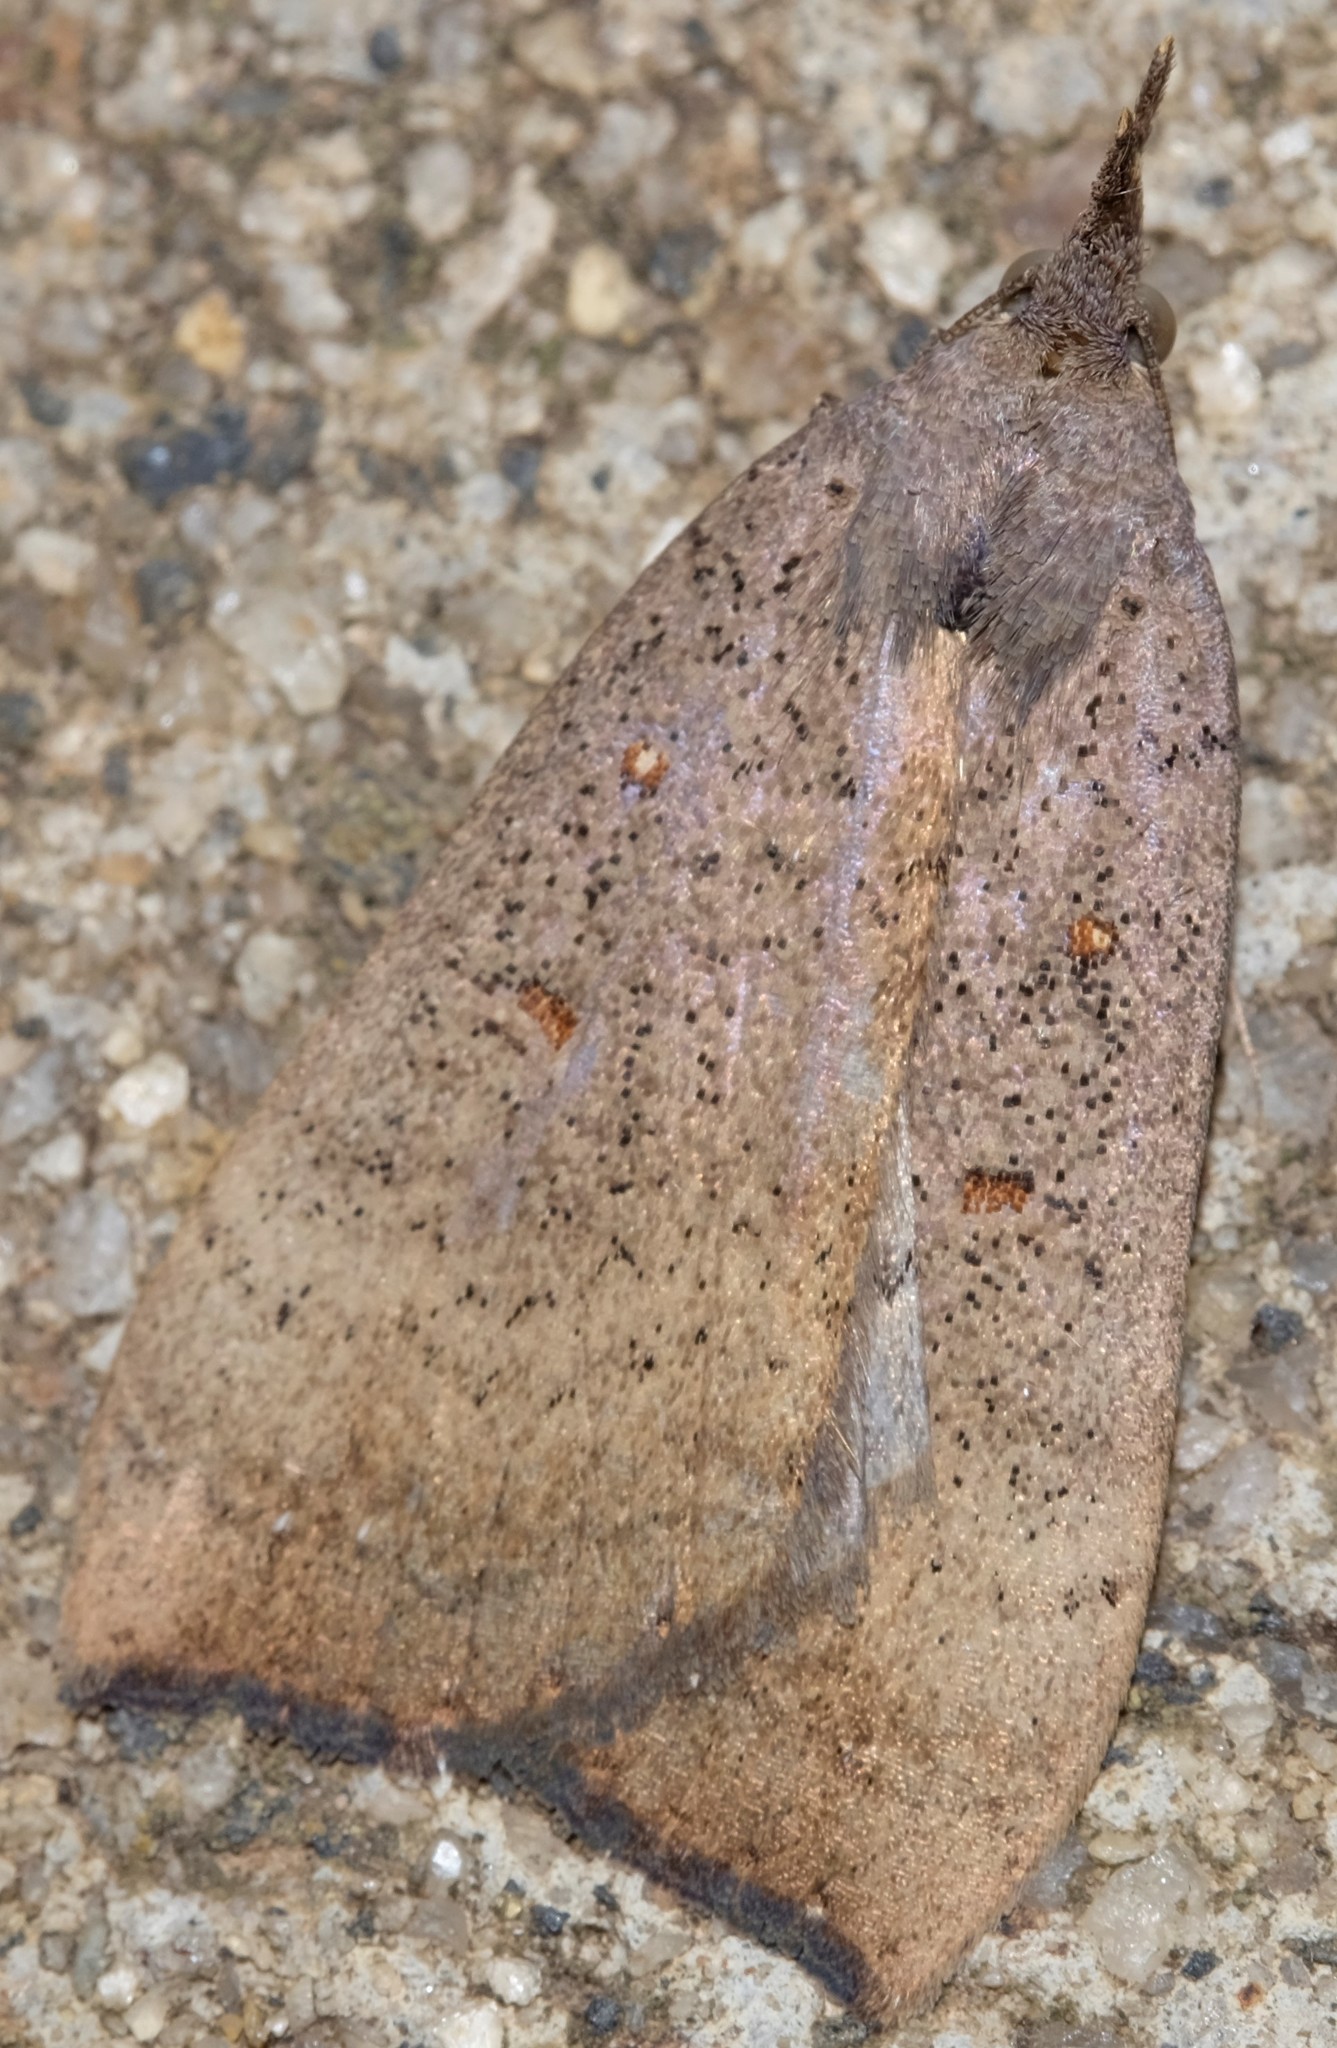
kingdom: Animalia
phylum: Arthropoda
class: Insecta
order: Lepidoptera
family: Erebidae
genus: Rhapsa
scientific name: Rhapsa suscitatalis
